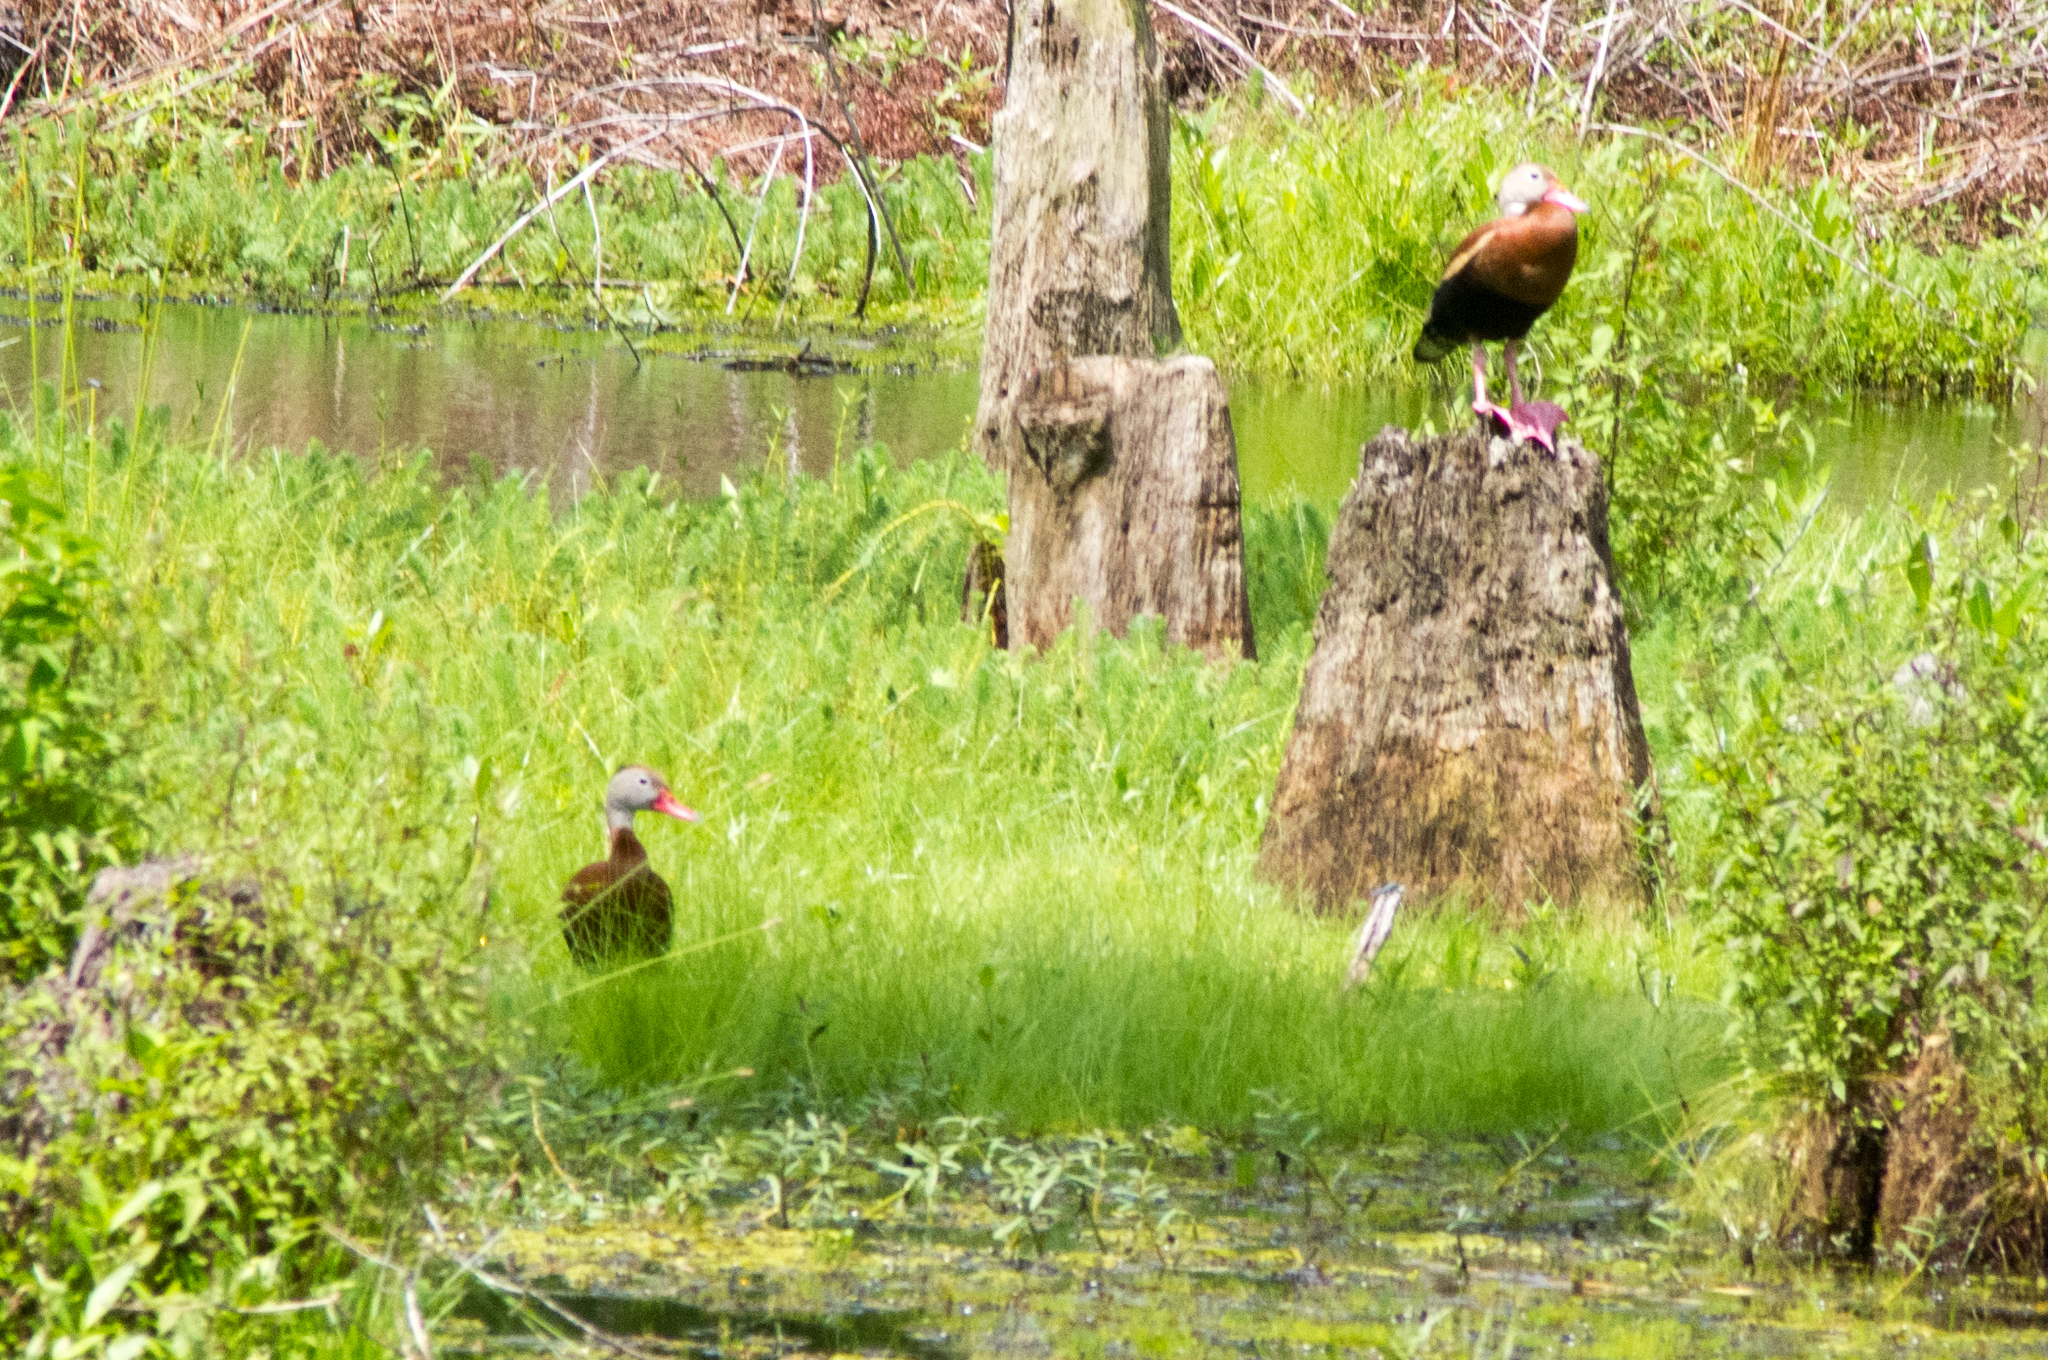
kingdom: Animalia
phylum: Chordata
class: Aves
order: Anseriformes
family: Anatidae
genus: Dendrocygna
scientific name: Dendrocygna autumnalis
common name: Black-bellied whistling duck
